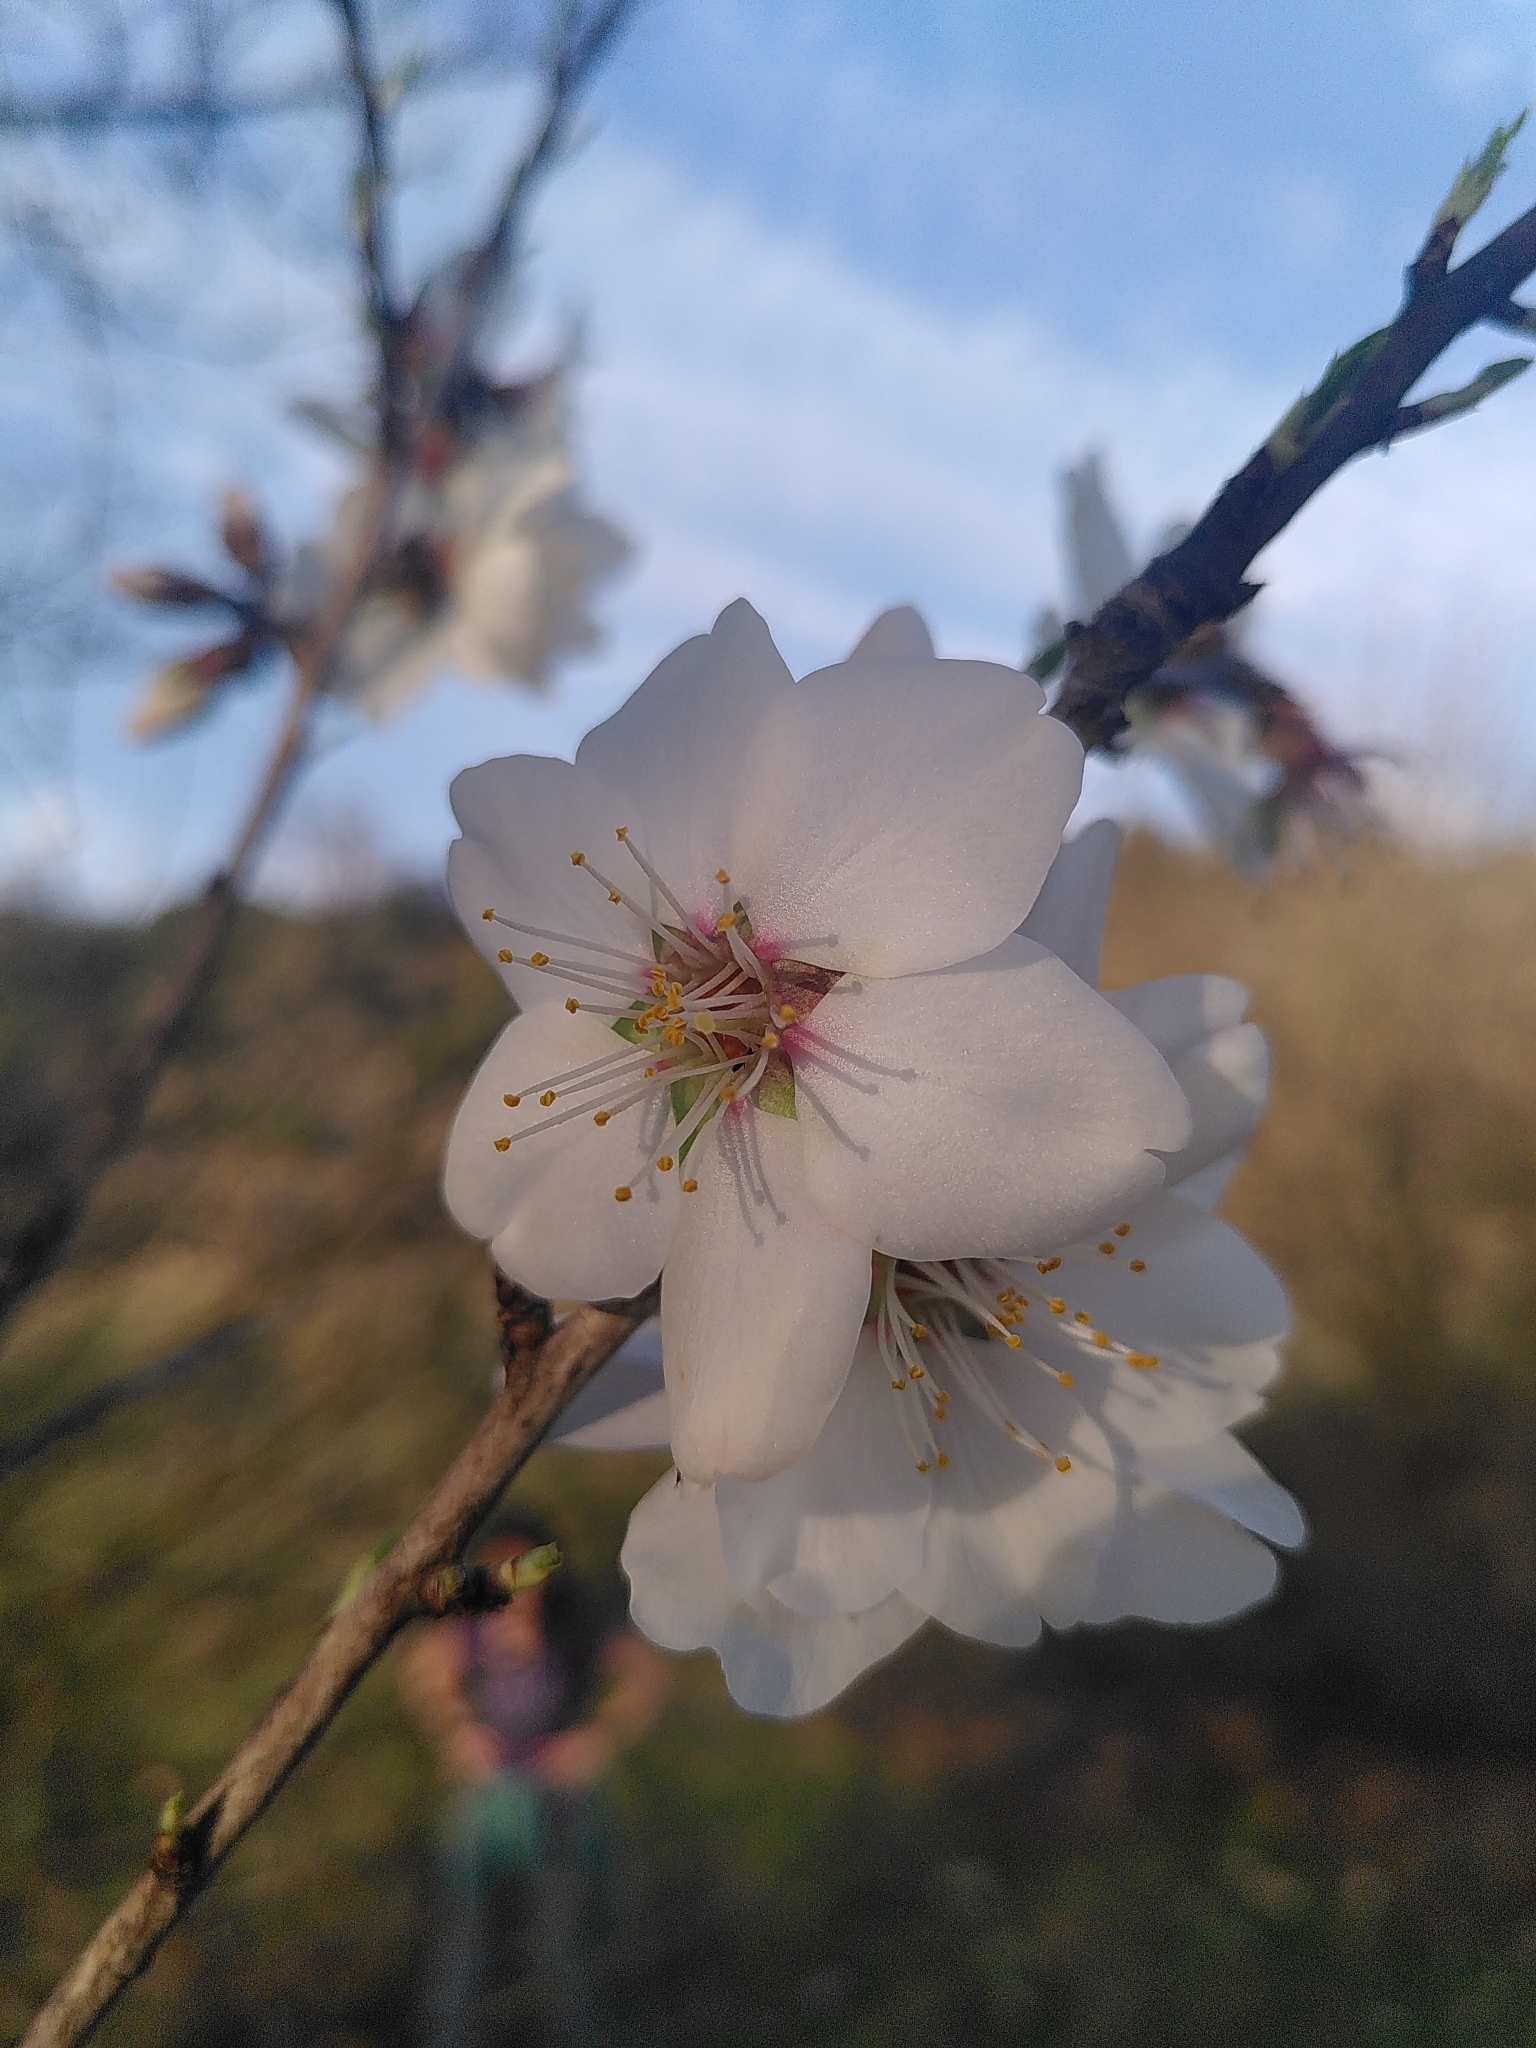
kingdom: Plantae
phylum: Tracheophyta
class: Magnoliopsida
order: Rosales
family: Rosaceae
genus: Prunus
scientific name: Prunus amygdalus
